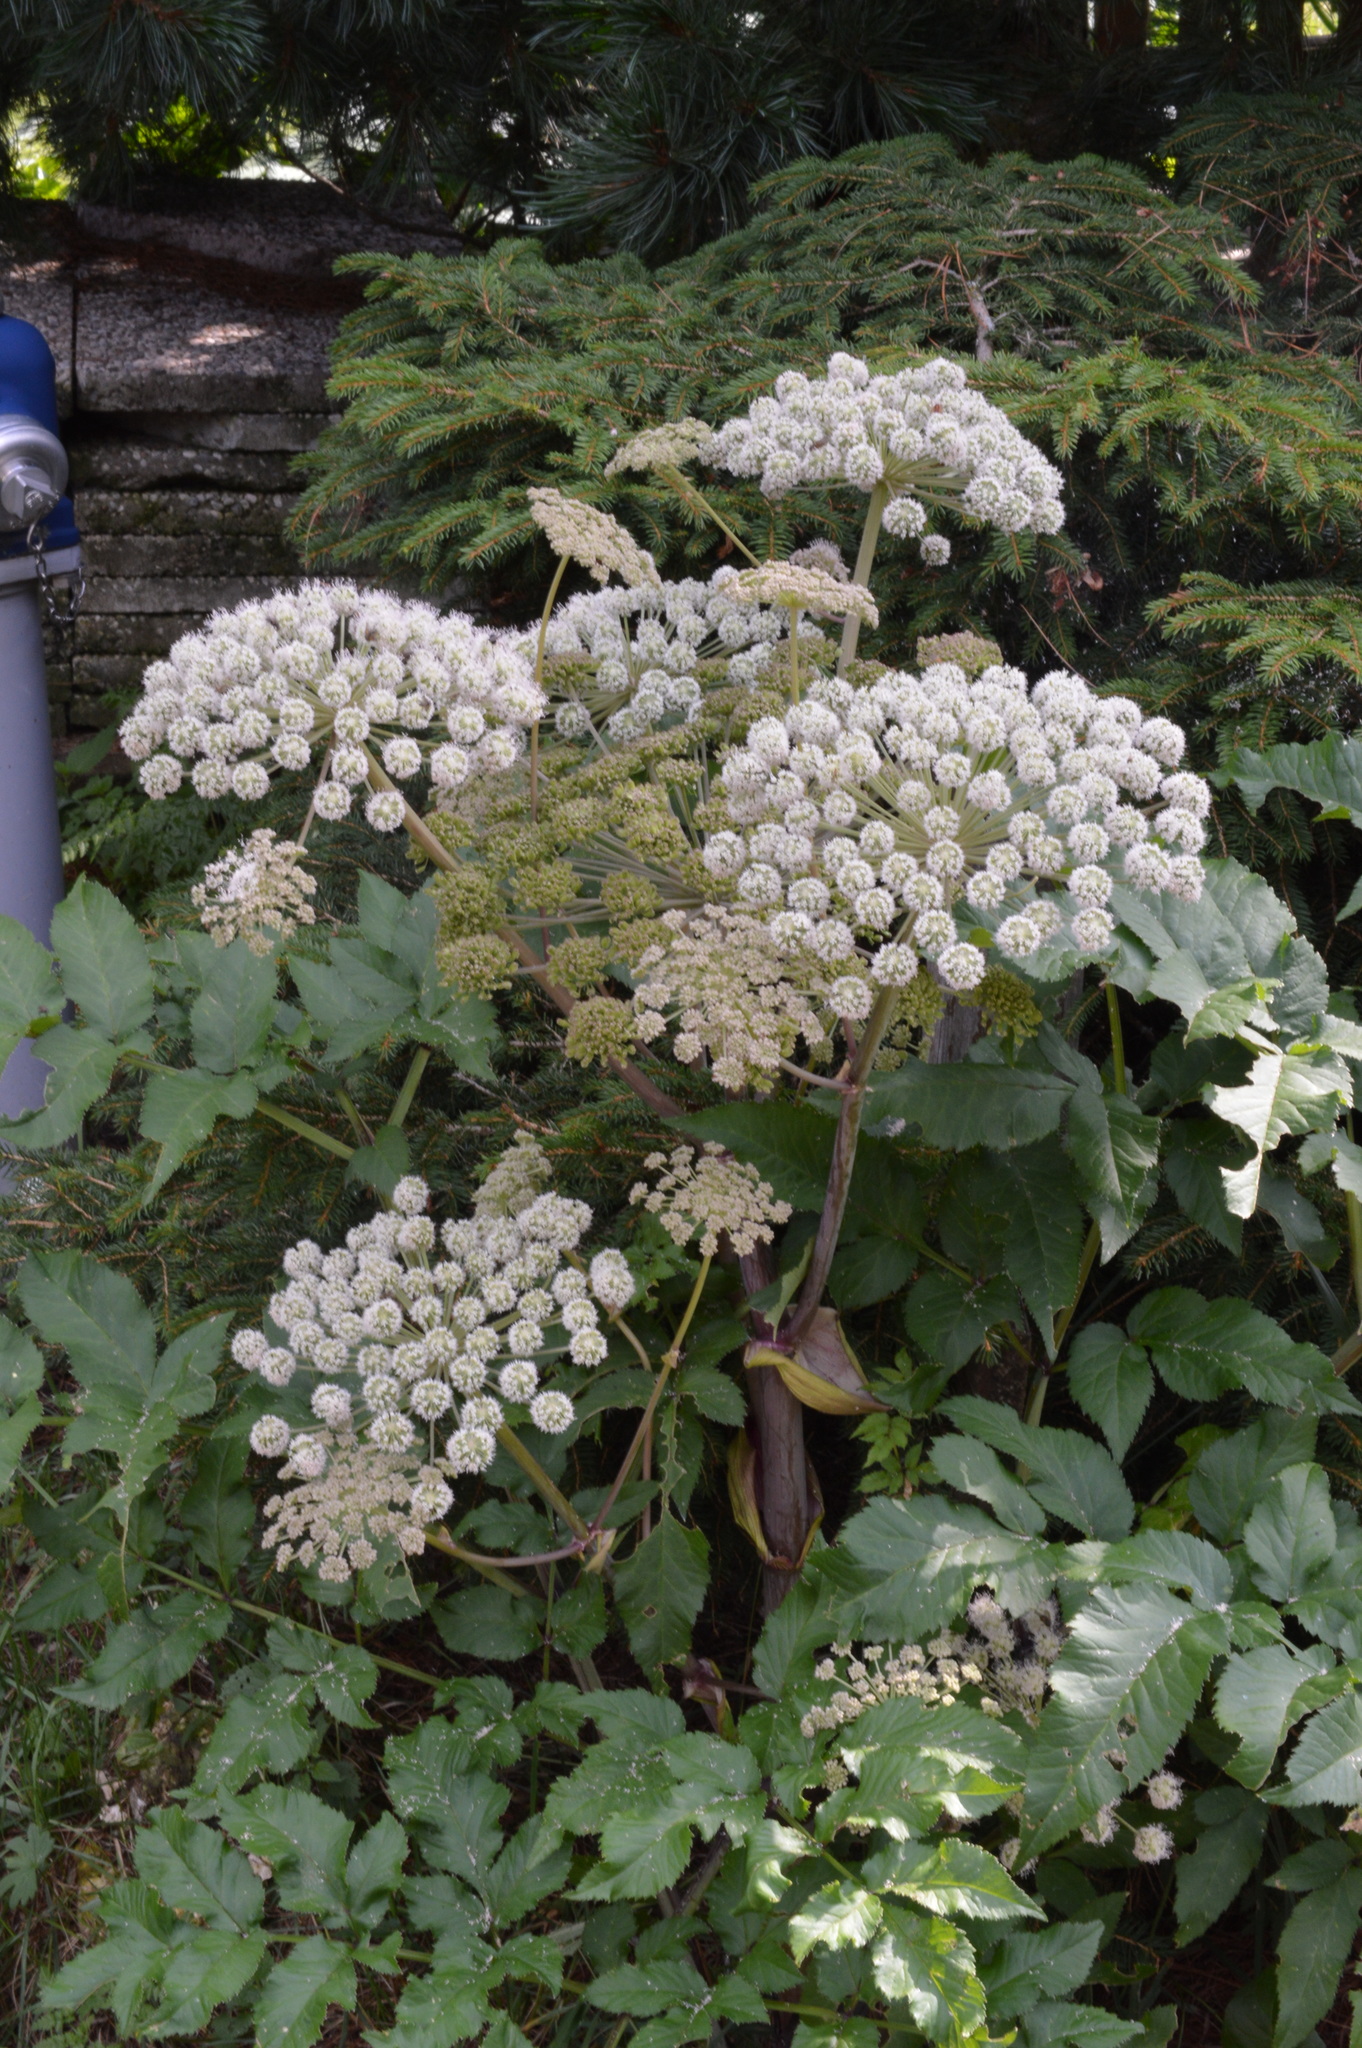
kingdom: Plantae
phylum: Tracheophyta
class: Magnoliopsida
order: Apiales
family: Apiaceae
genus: Angelica
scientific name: Angelica sylvestris
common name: Wild angelica
